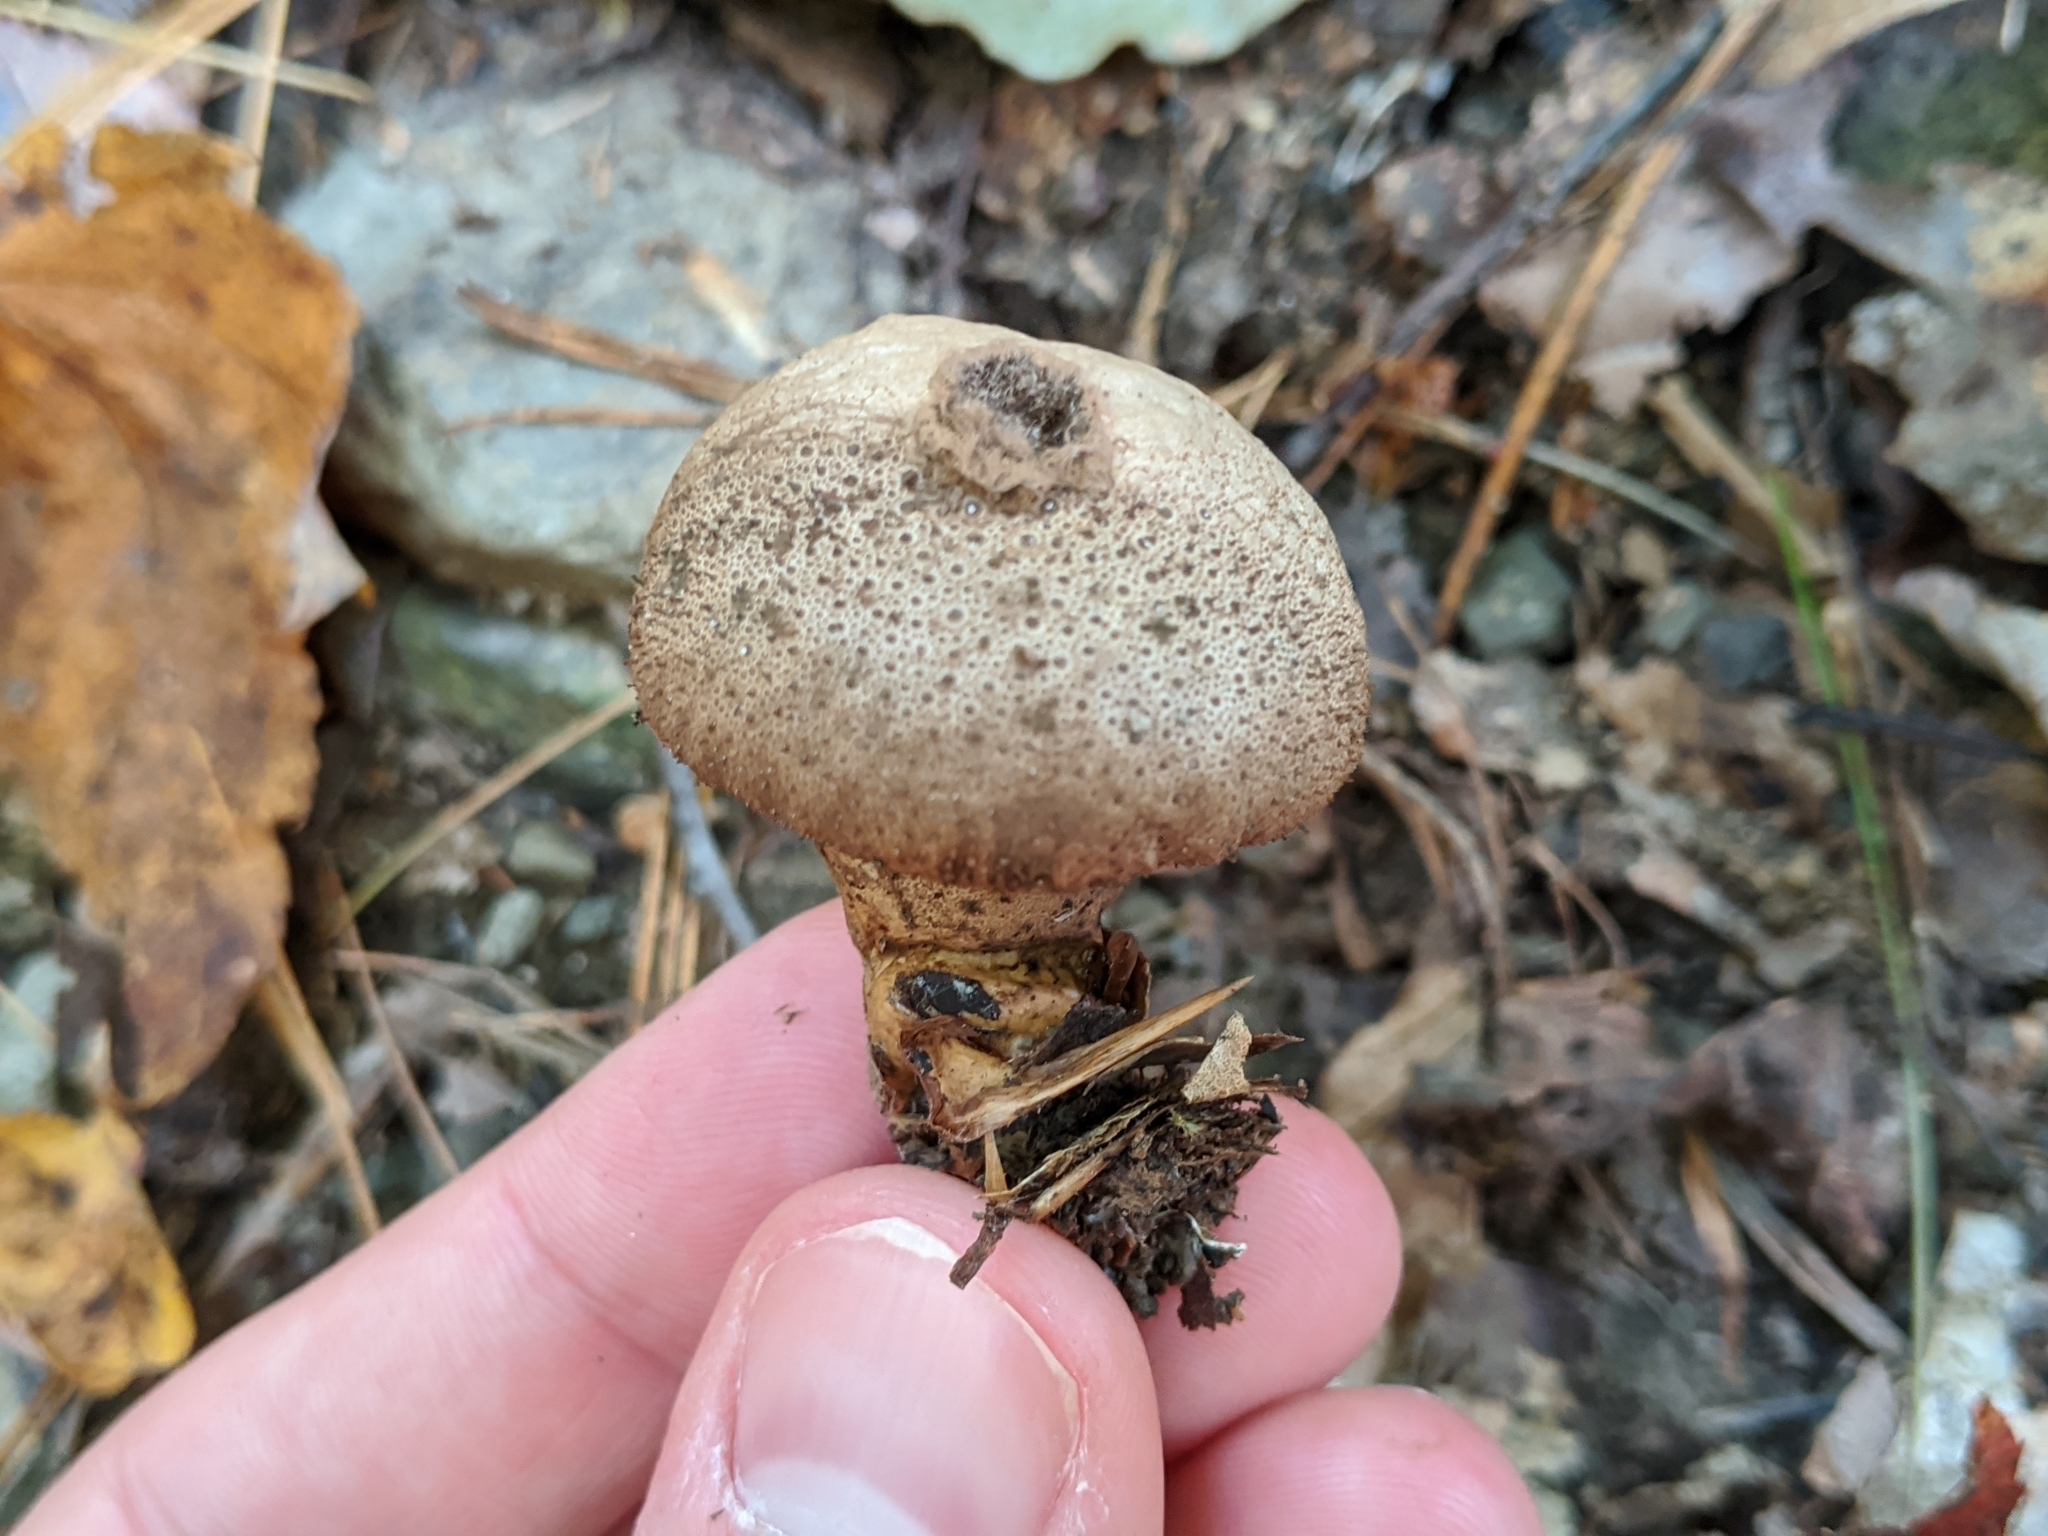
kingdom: Fungi
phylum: Basidiomycota
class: Agaricomycetes
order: Agaricales
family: Lycoperdaceae
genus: Lycoperdon
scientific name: Lycoperdon perlatum
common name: Common puffball
